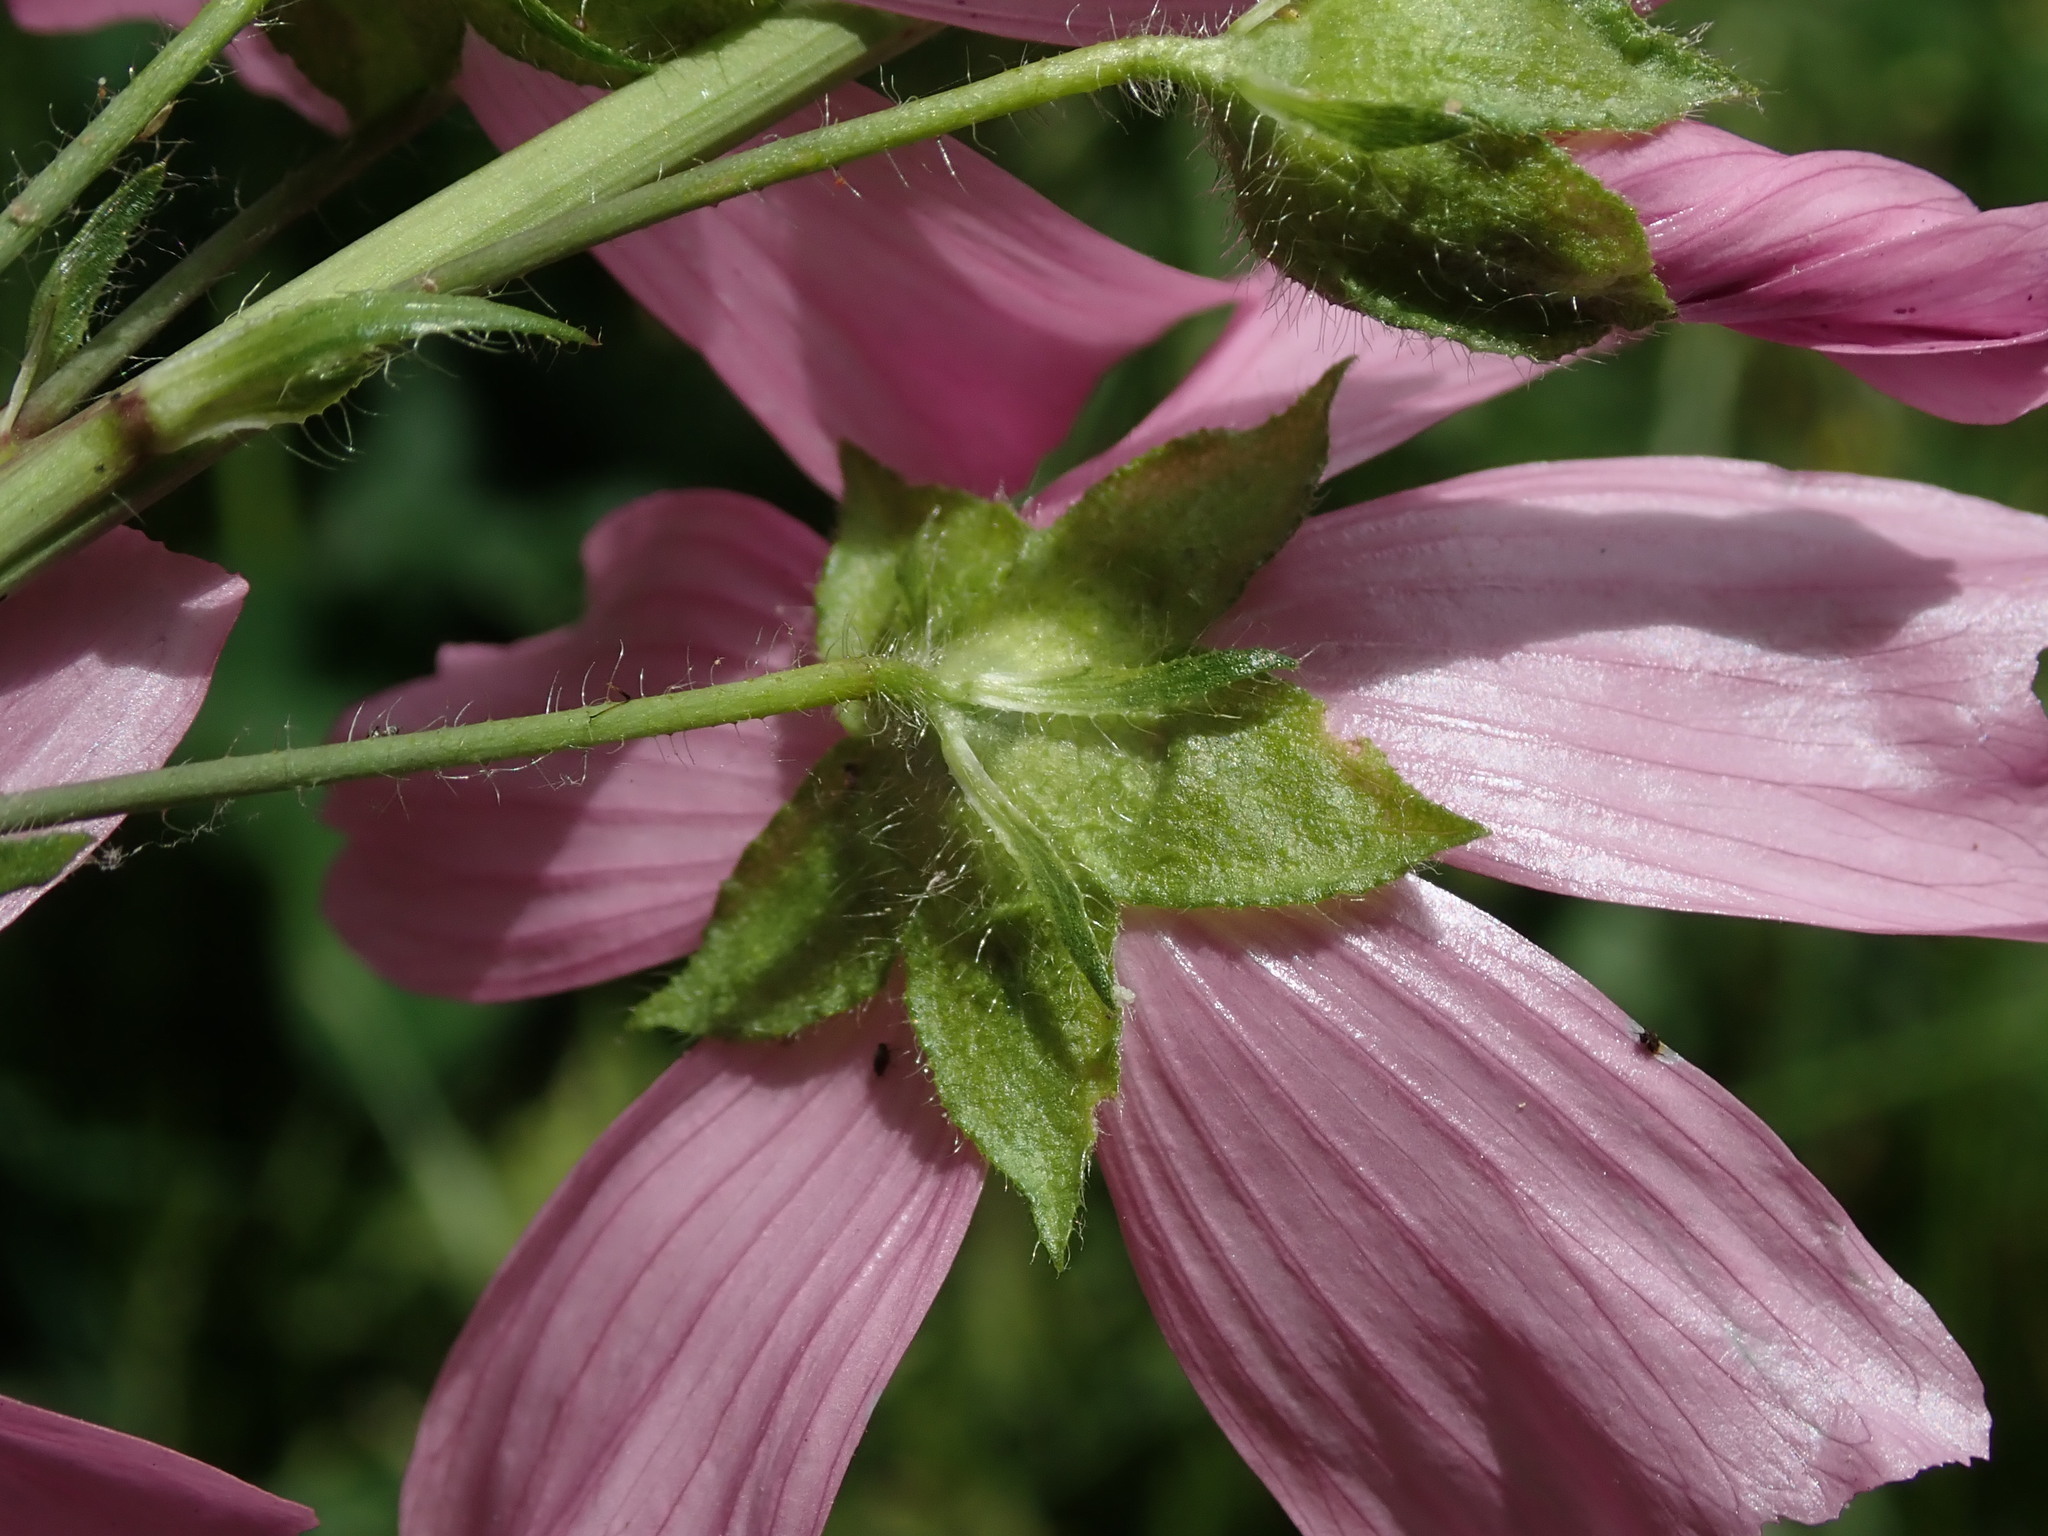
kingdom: Plantae
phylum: Tracheophyta
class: Magnoliopsida
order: Malvales
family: Malvaceae
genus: Malva
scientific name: Malva moschata
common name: Musk mallow
